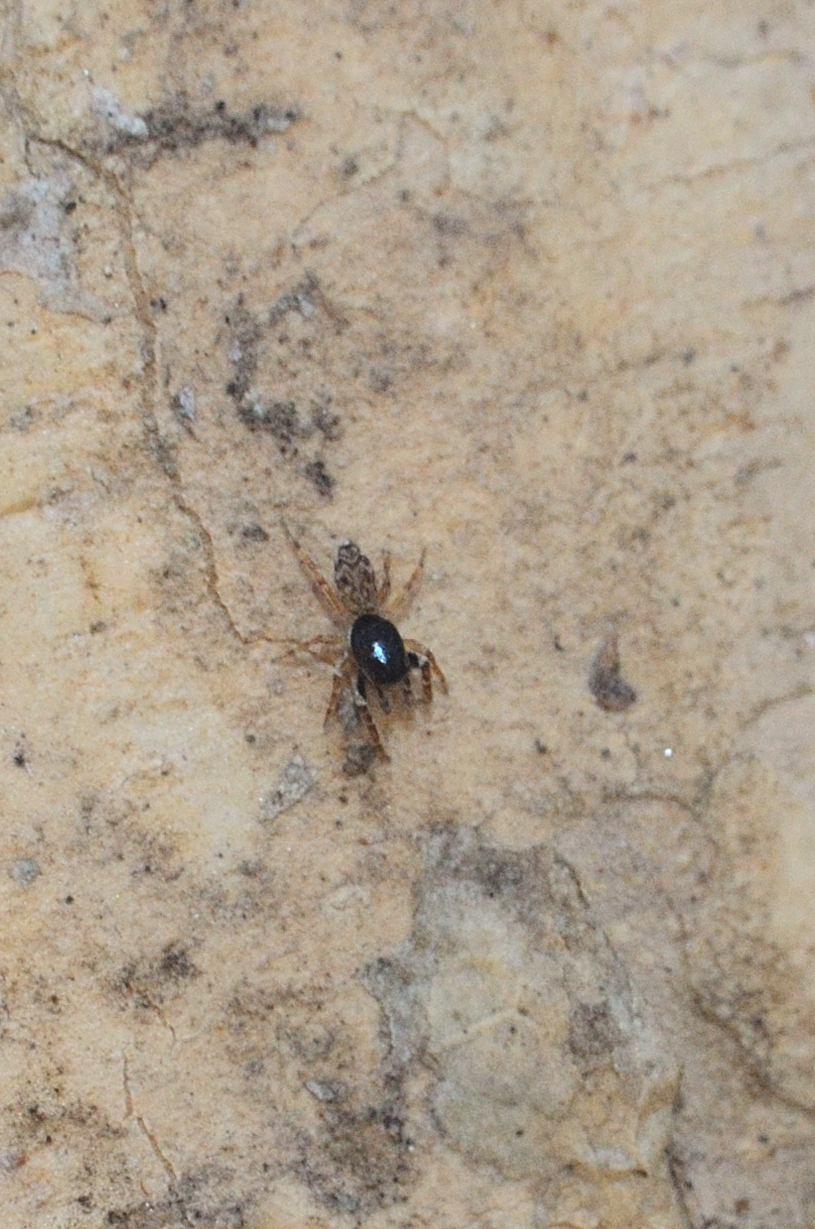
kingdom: Animalia
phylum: Arthropoda
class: Arachnida
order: Araneae
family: Salticidae
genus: Icius
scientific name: Icius kumariae
